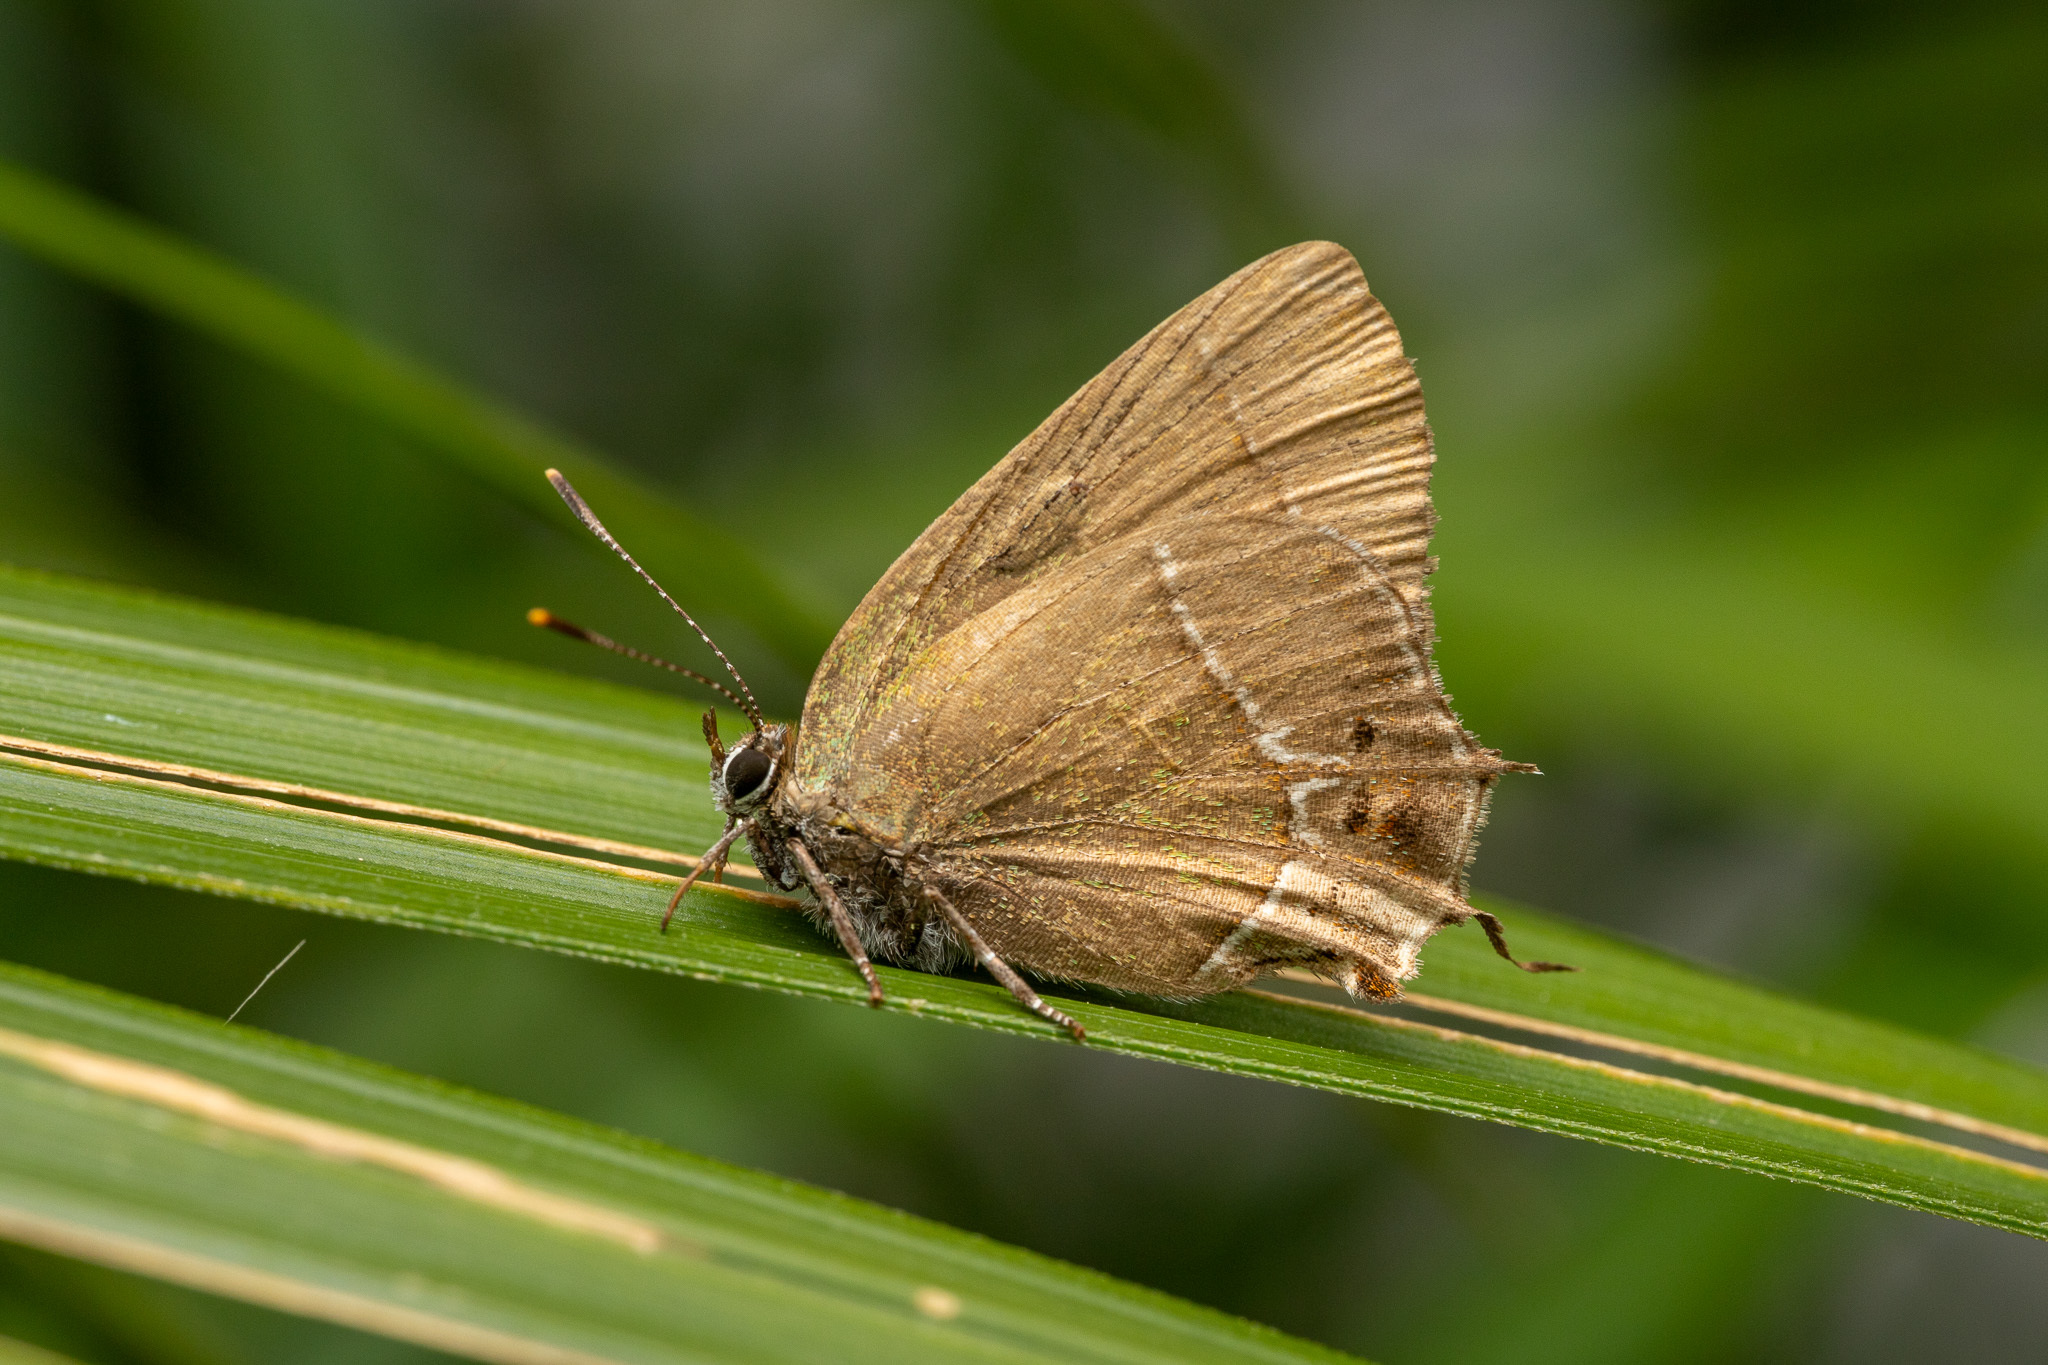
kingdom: Animalia
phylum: Arthropoda
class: Insecta
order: Lepidoptera
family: Lycaenidae
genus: Xamia
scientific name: Xamia xami
